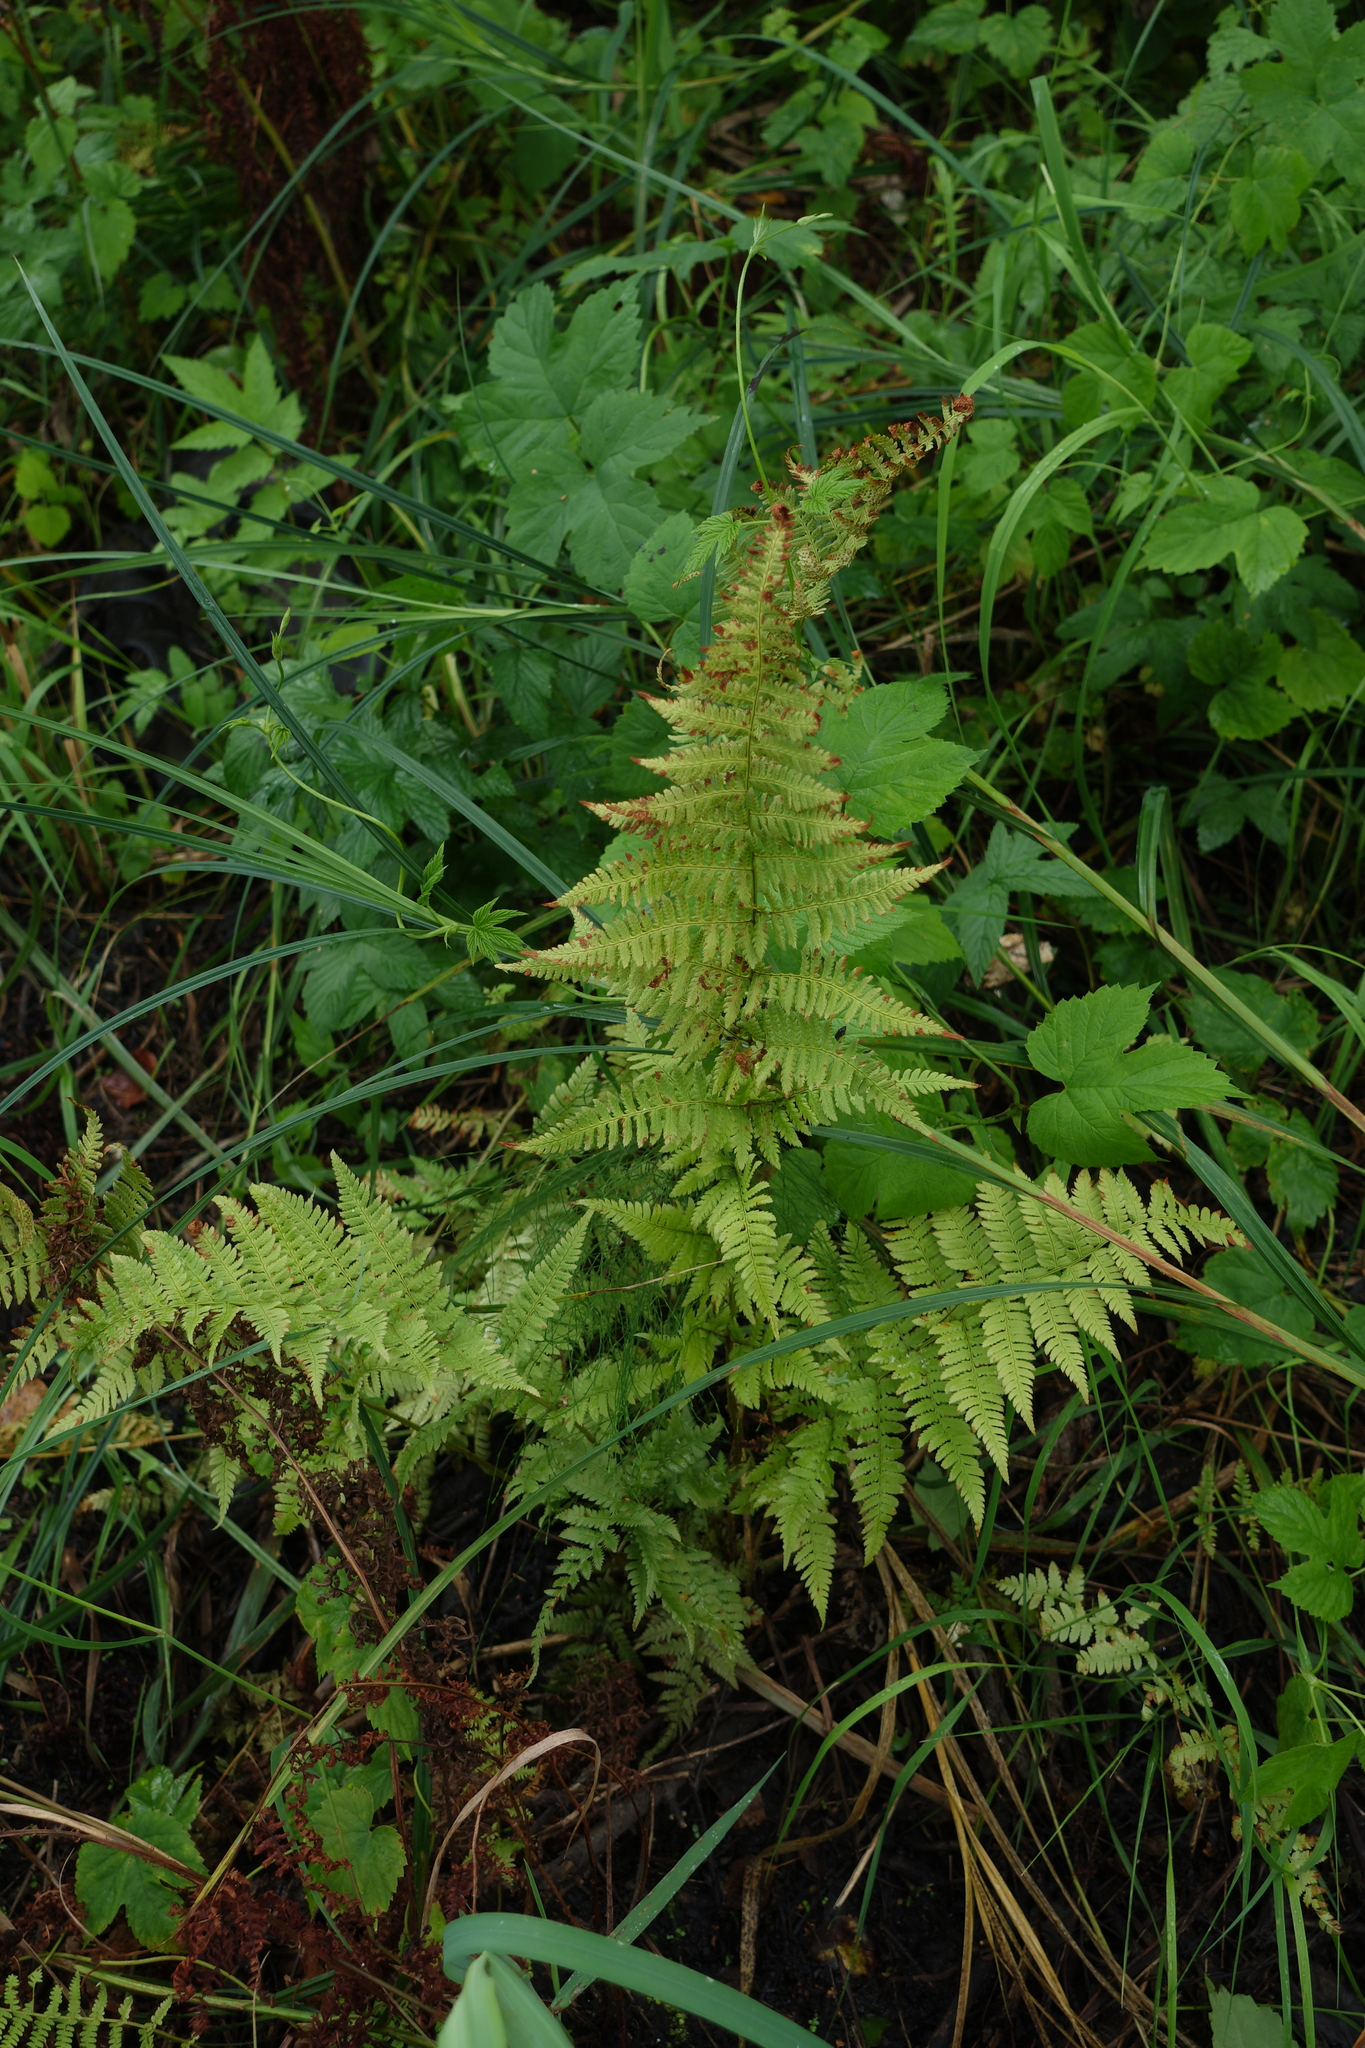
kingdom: Plantae
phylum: Tracheophyta
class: Polypodiopsida
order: Polypodiales
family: Athyriaceae
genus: Athyrium
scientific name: Athyrium filix-femina
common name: Lady fern
